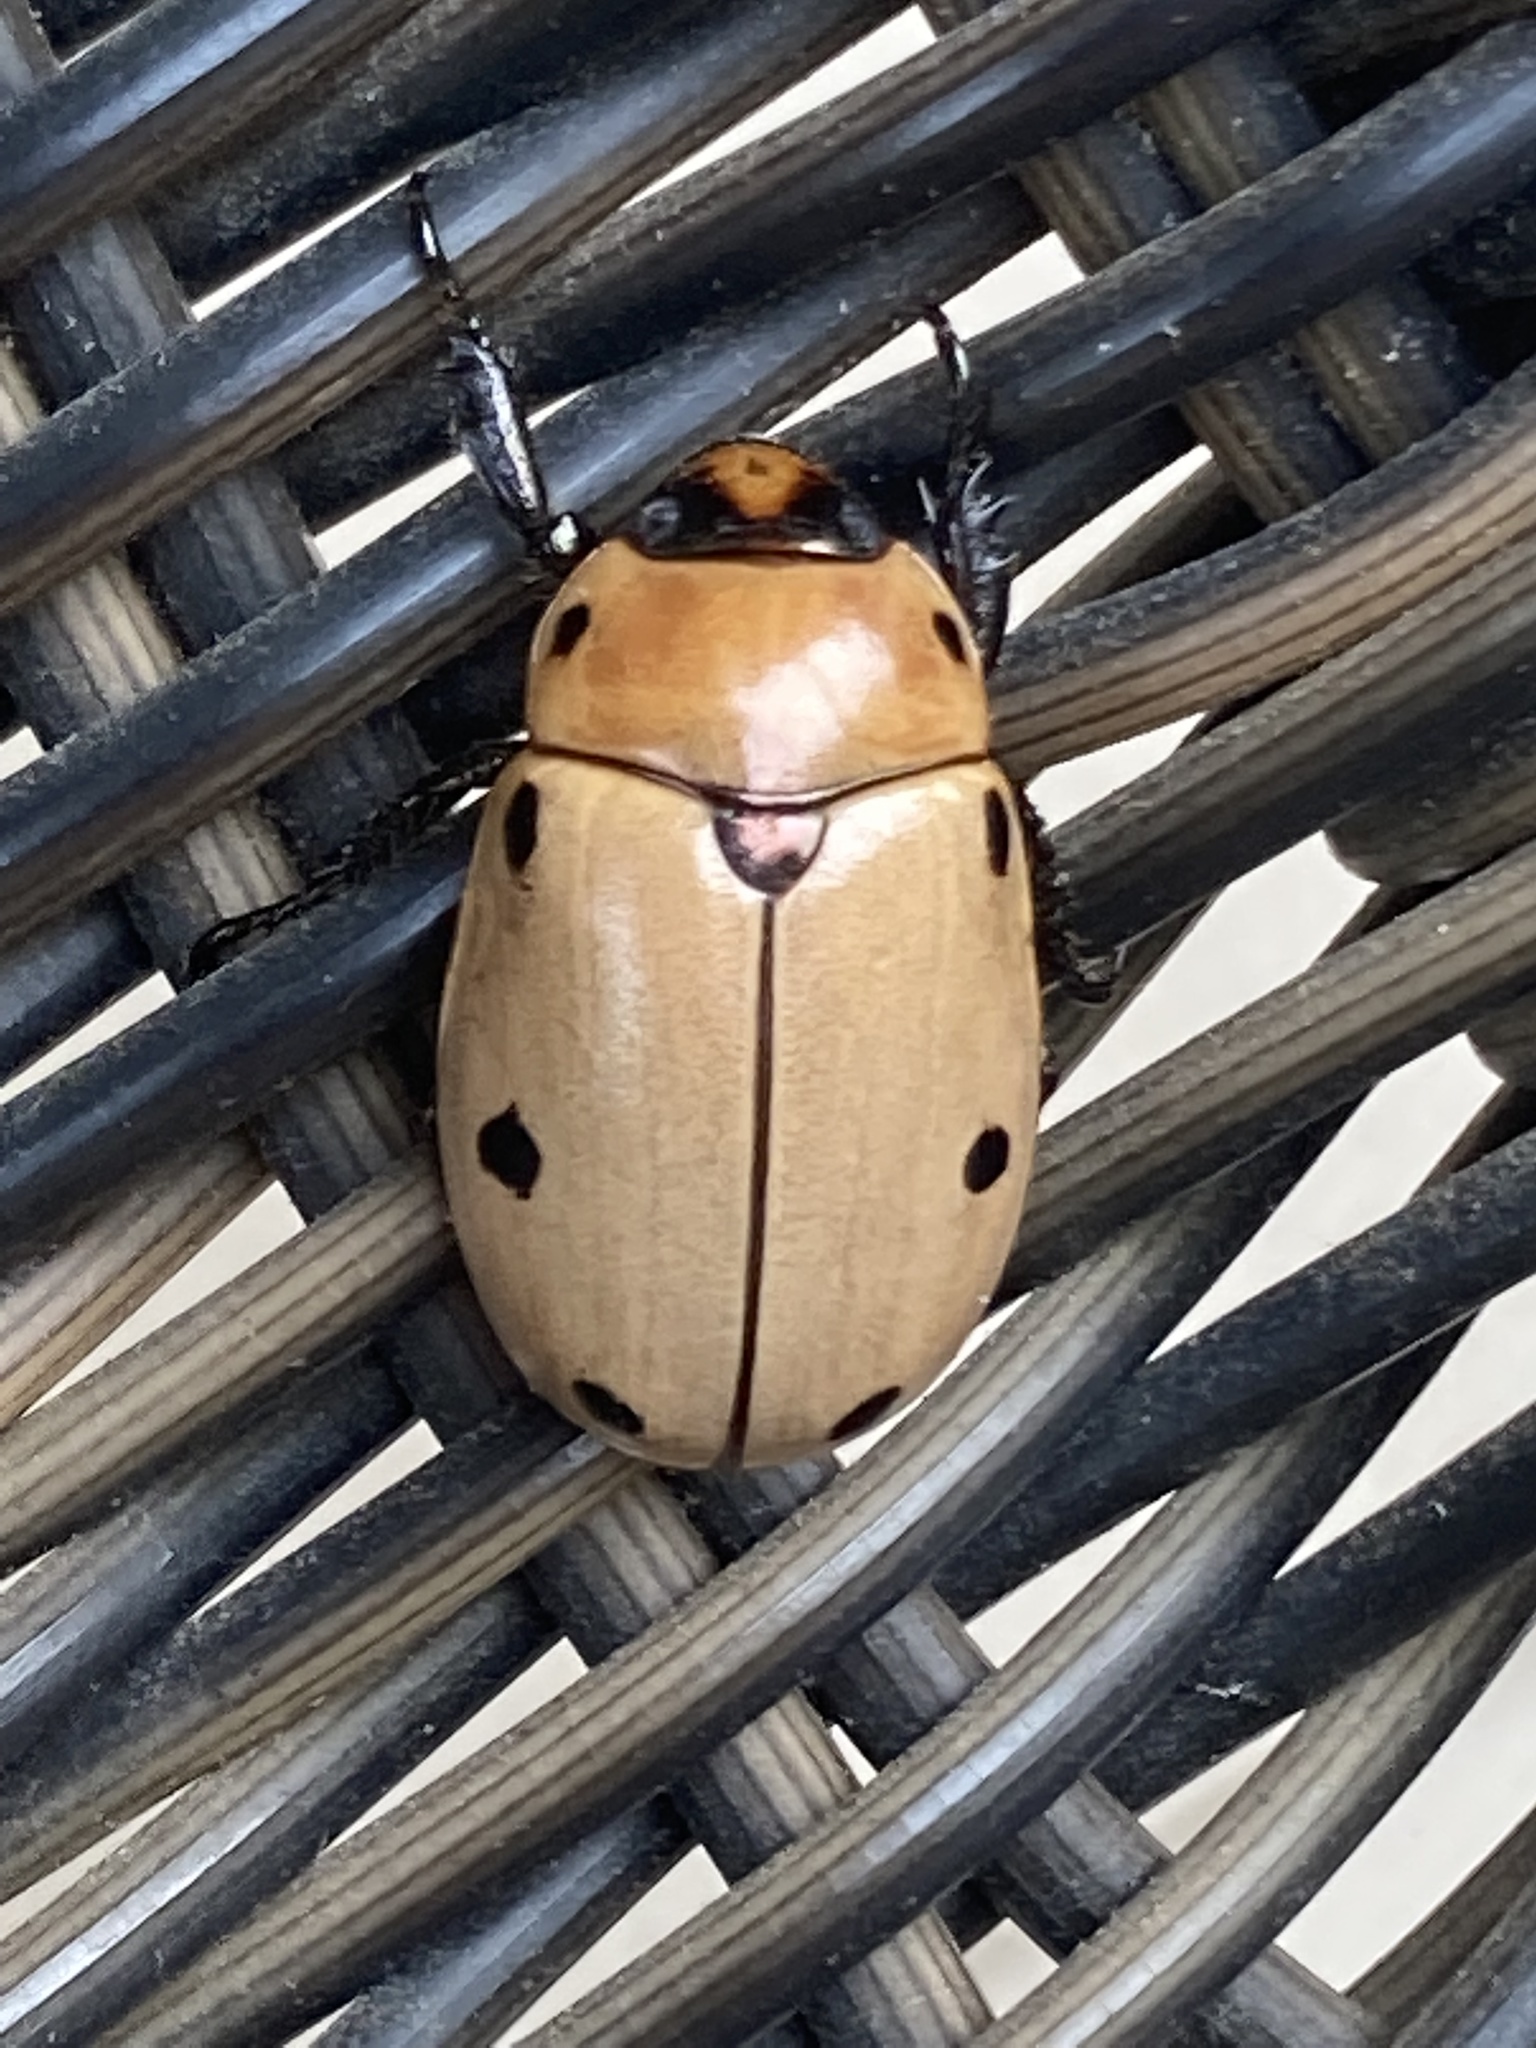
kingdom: Animalia
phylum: Arthropoda
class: Insecta
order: Coleoptera
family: Scarabaeidae
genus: Pelidnota
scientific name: Pelidnota punctata
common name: Grapevine beetle
